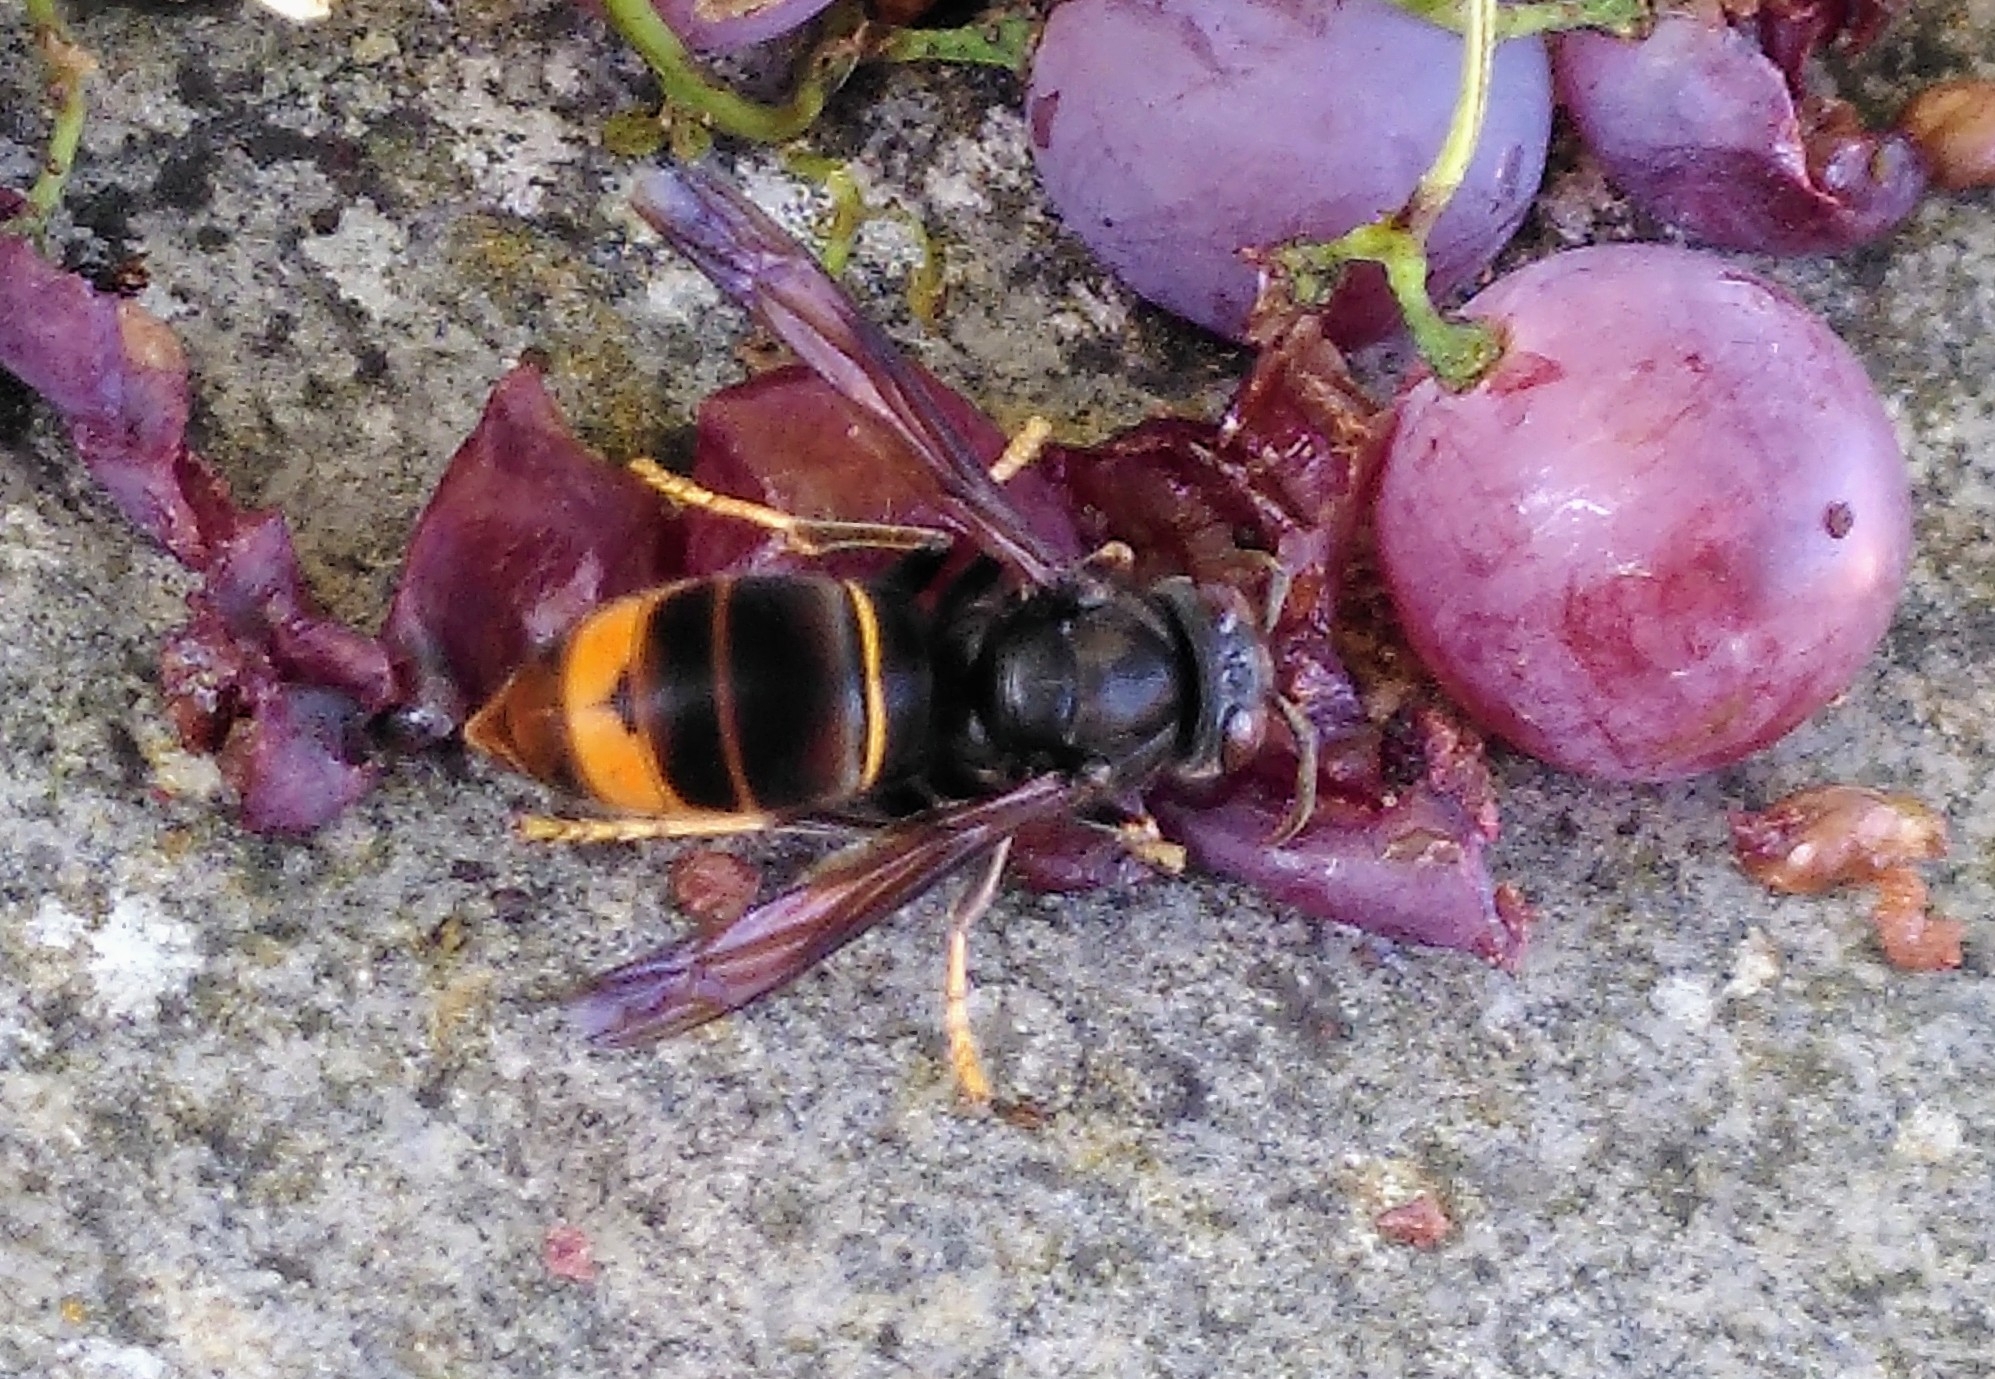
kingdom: Animalia
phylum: Arthropoda
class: Insecta
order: Hymenoptera
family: Vespidae
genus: Vespa
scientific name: Vespa velutina
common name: Asian hornet
